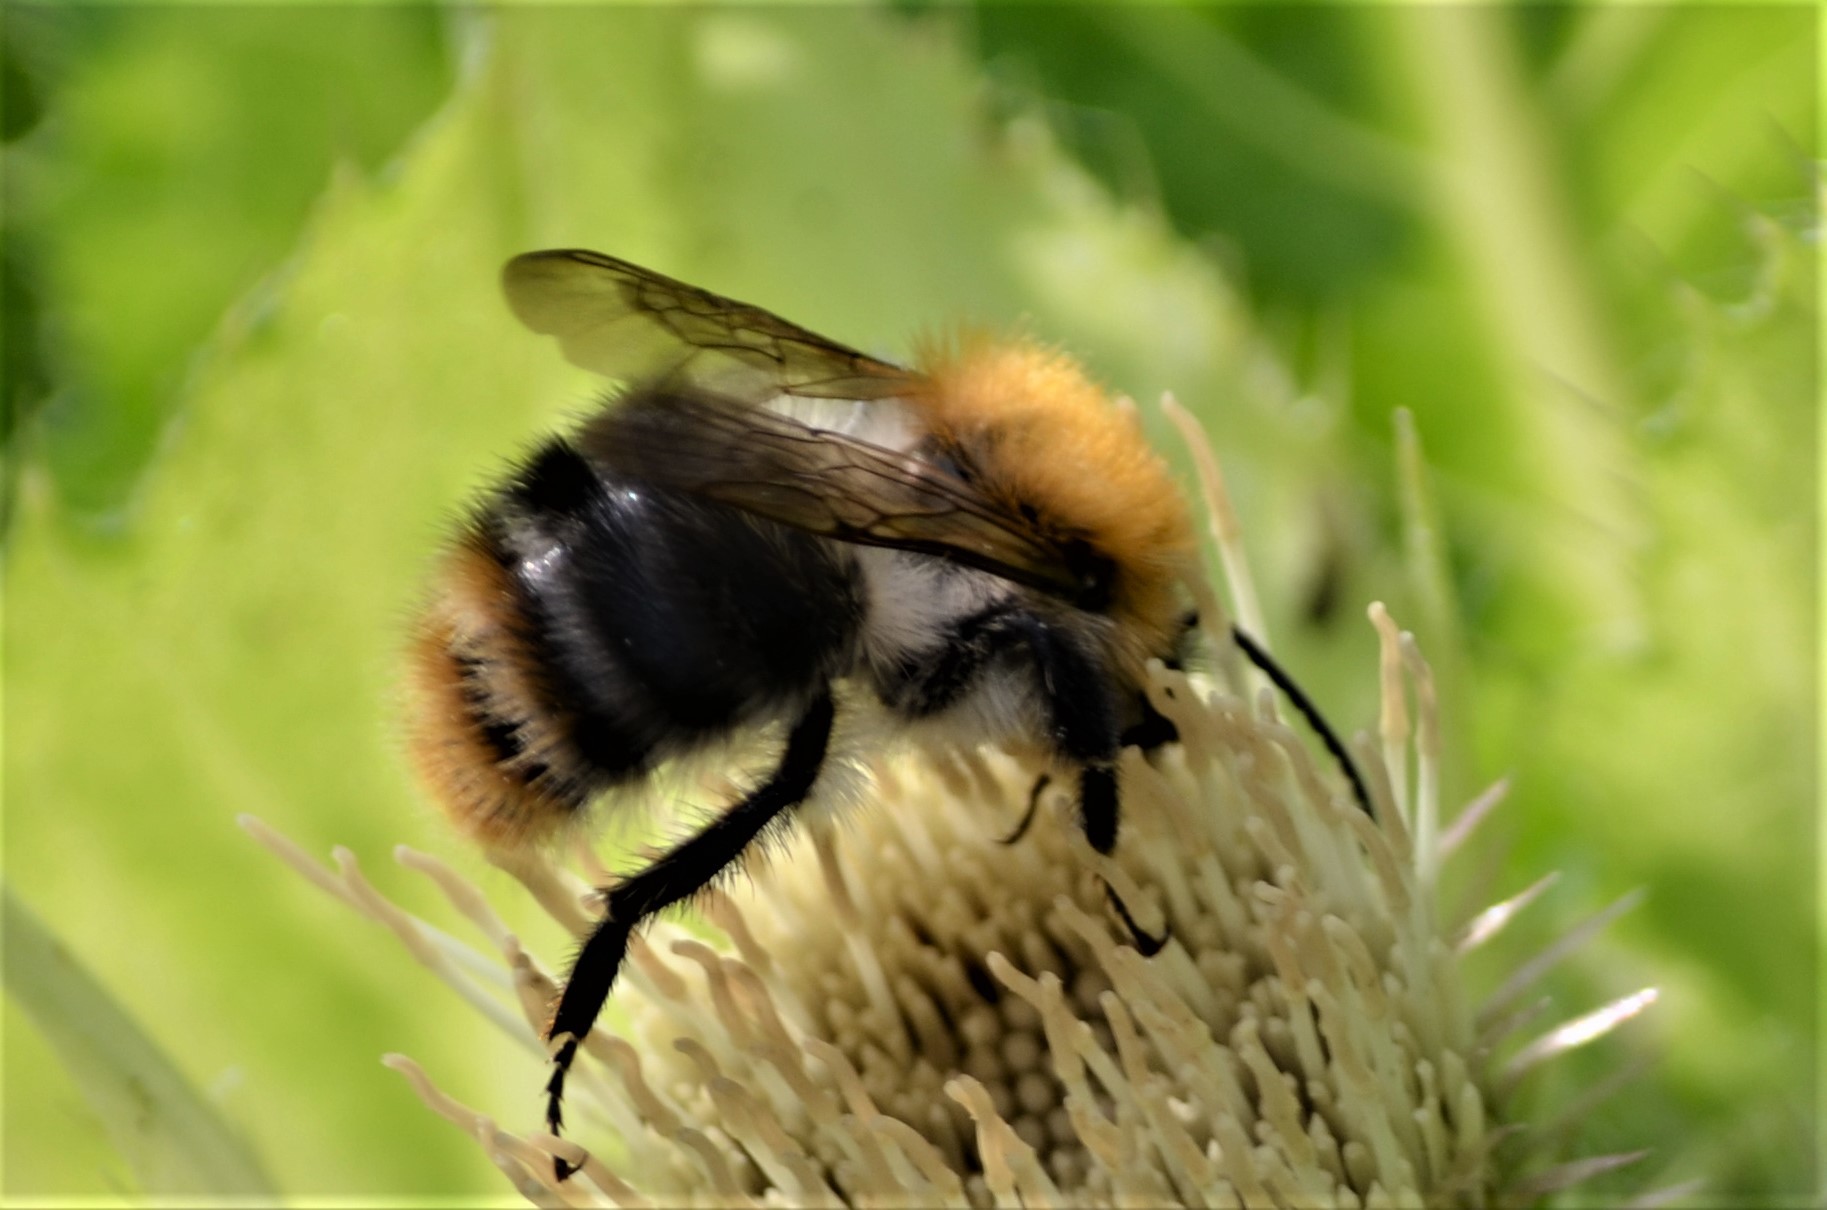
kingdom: Animalia
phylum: Arthropoda
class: Insecta
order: Hymenoptera
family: Apidae
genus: Bombus
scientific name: Bombus pascuorum
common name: Common carder bee
